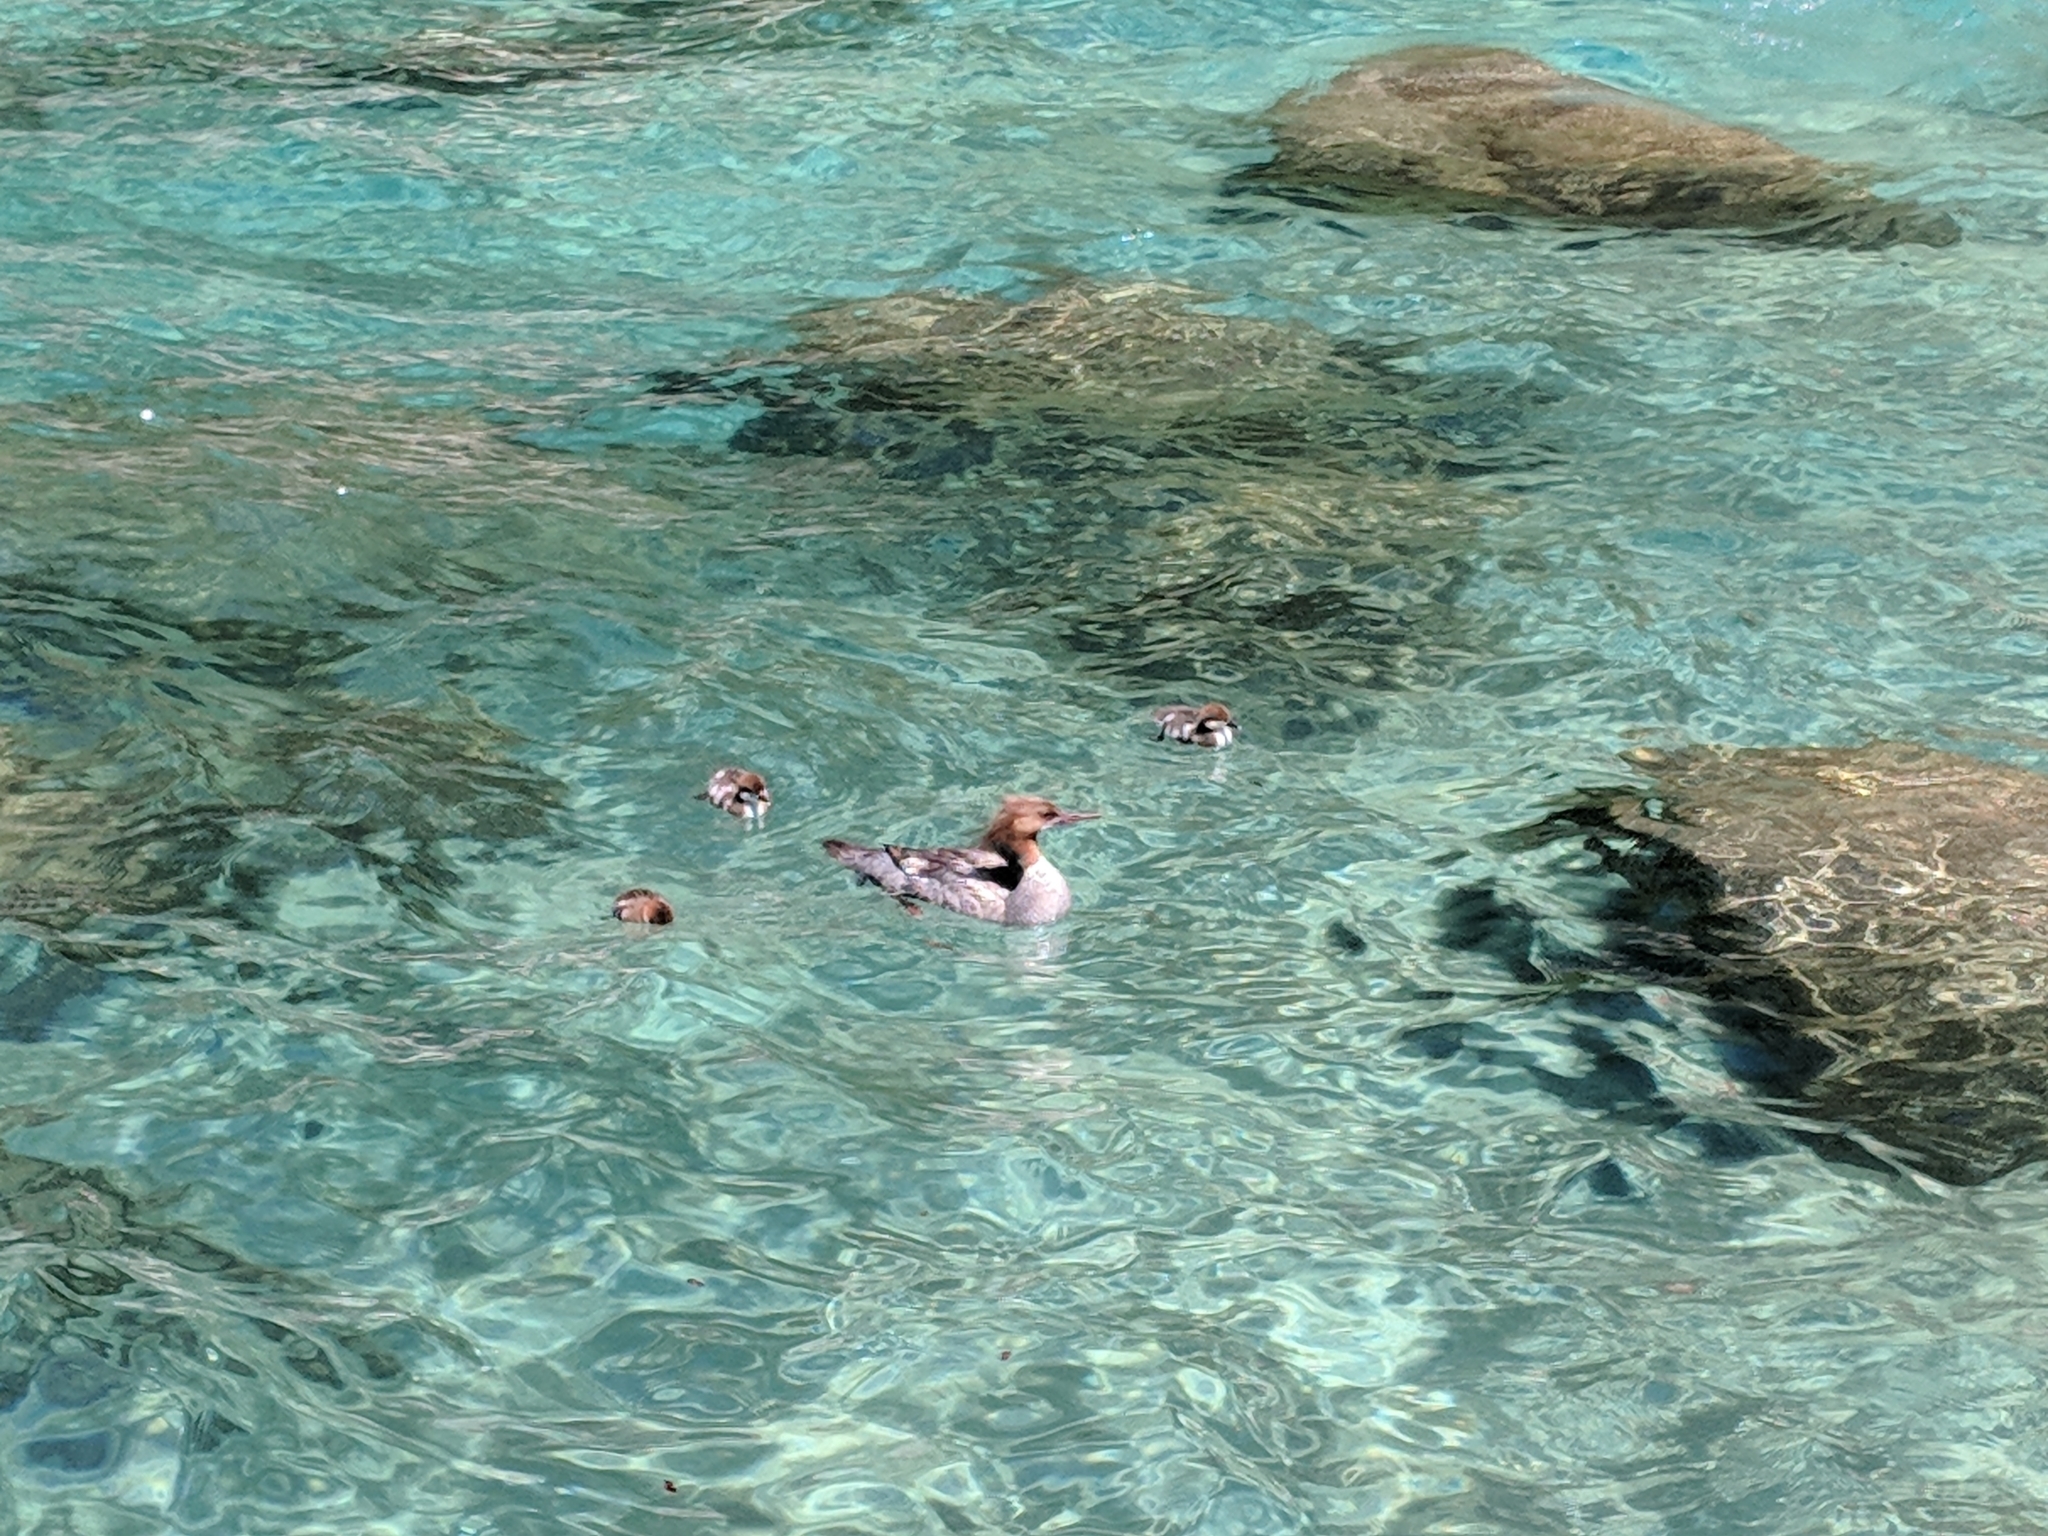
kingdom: Animalia
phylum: Chordata
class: Aves
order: Anseriformes
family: Anatidae
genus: Mergus
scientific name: Mergus merganser
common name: Common merganser
